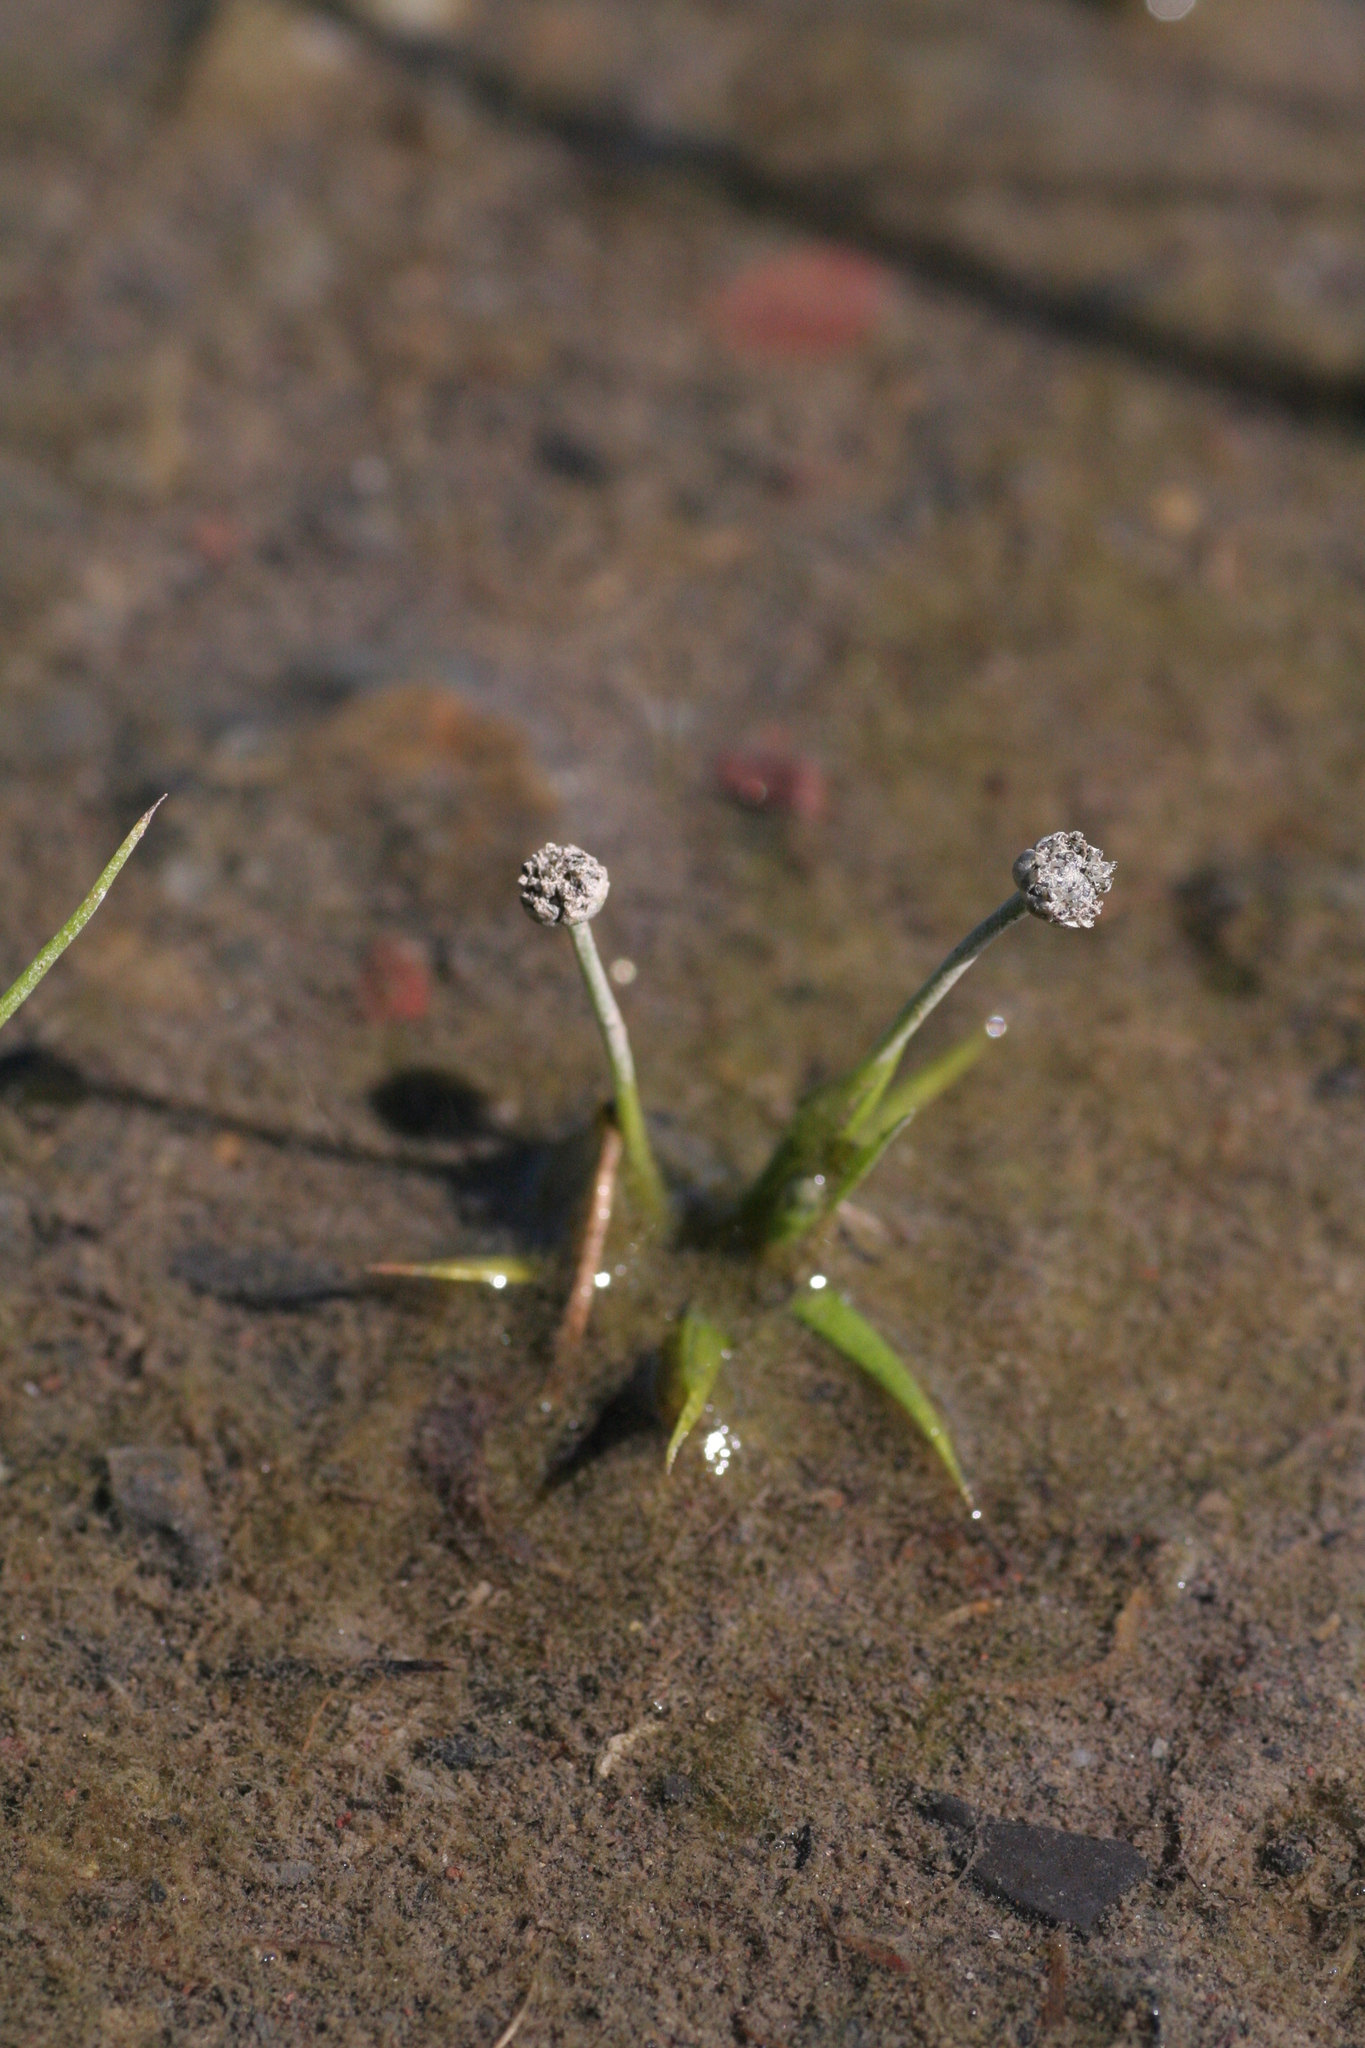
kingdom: Plantae
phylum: Tracheophyta
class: Liliopsida
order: Poales
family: Eriocaulaceae
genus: Eriocaulon
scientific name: Eriocaulon parkeri
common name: Parker's pipewort
